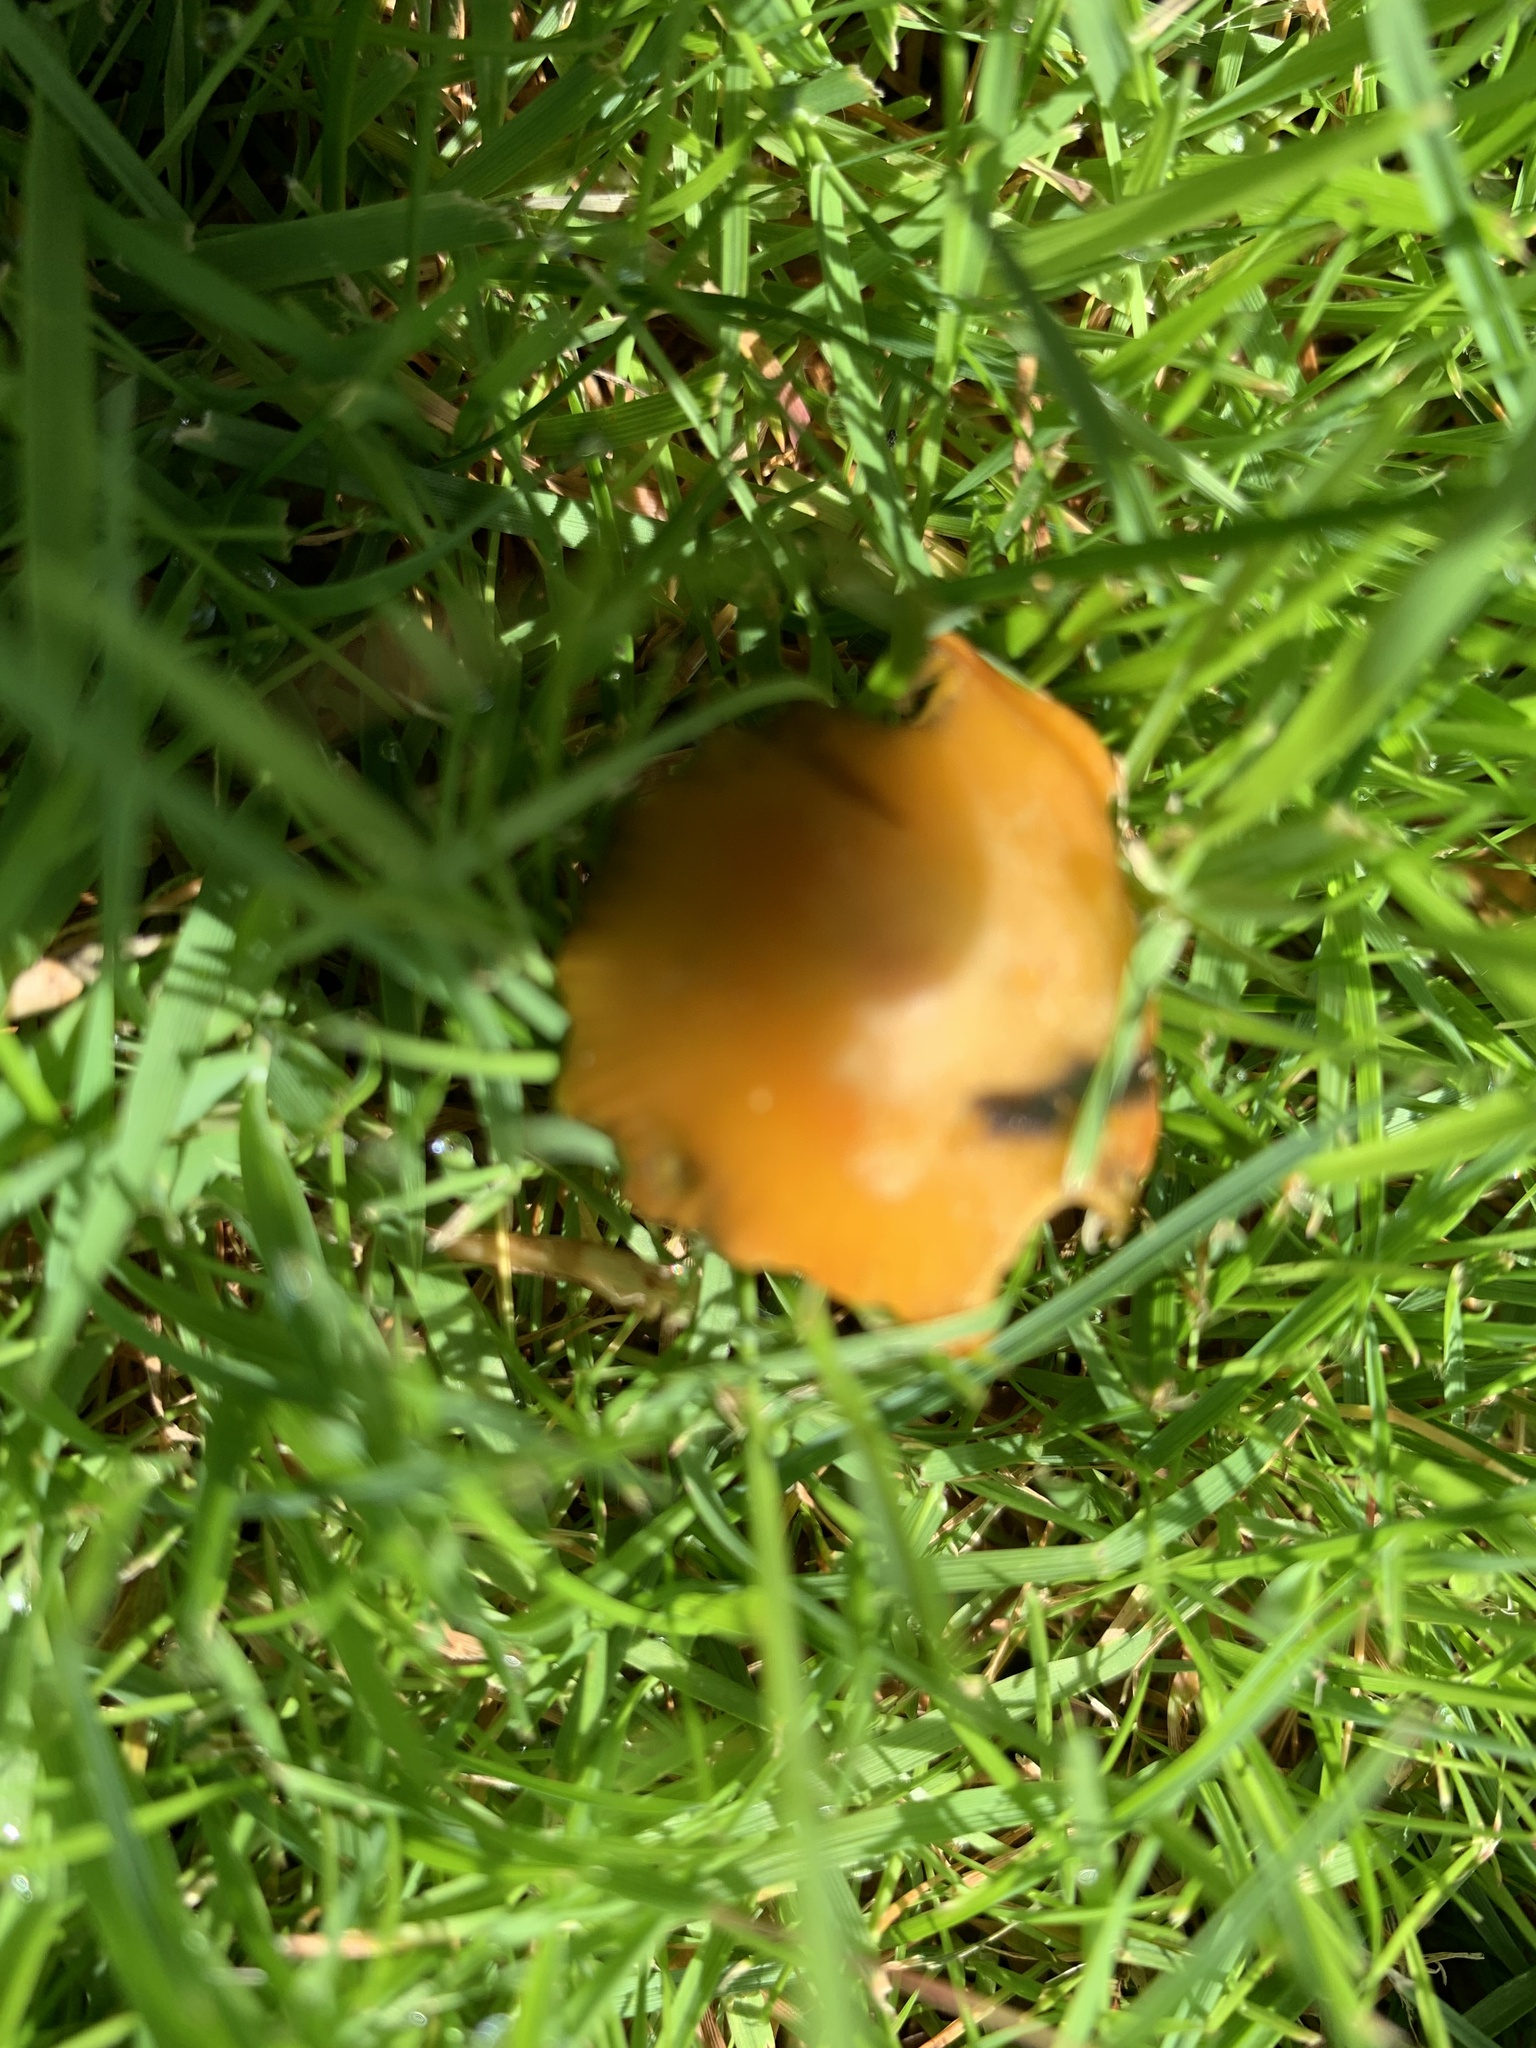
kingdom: Fungi
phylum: Basidiomycota
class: Agaricomycetes
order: Agaricales
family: Hygrophoraceae
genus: Hygrocybe
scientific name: Hygrocybe conica
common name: Blackening wax-cap
